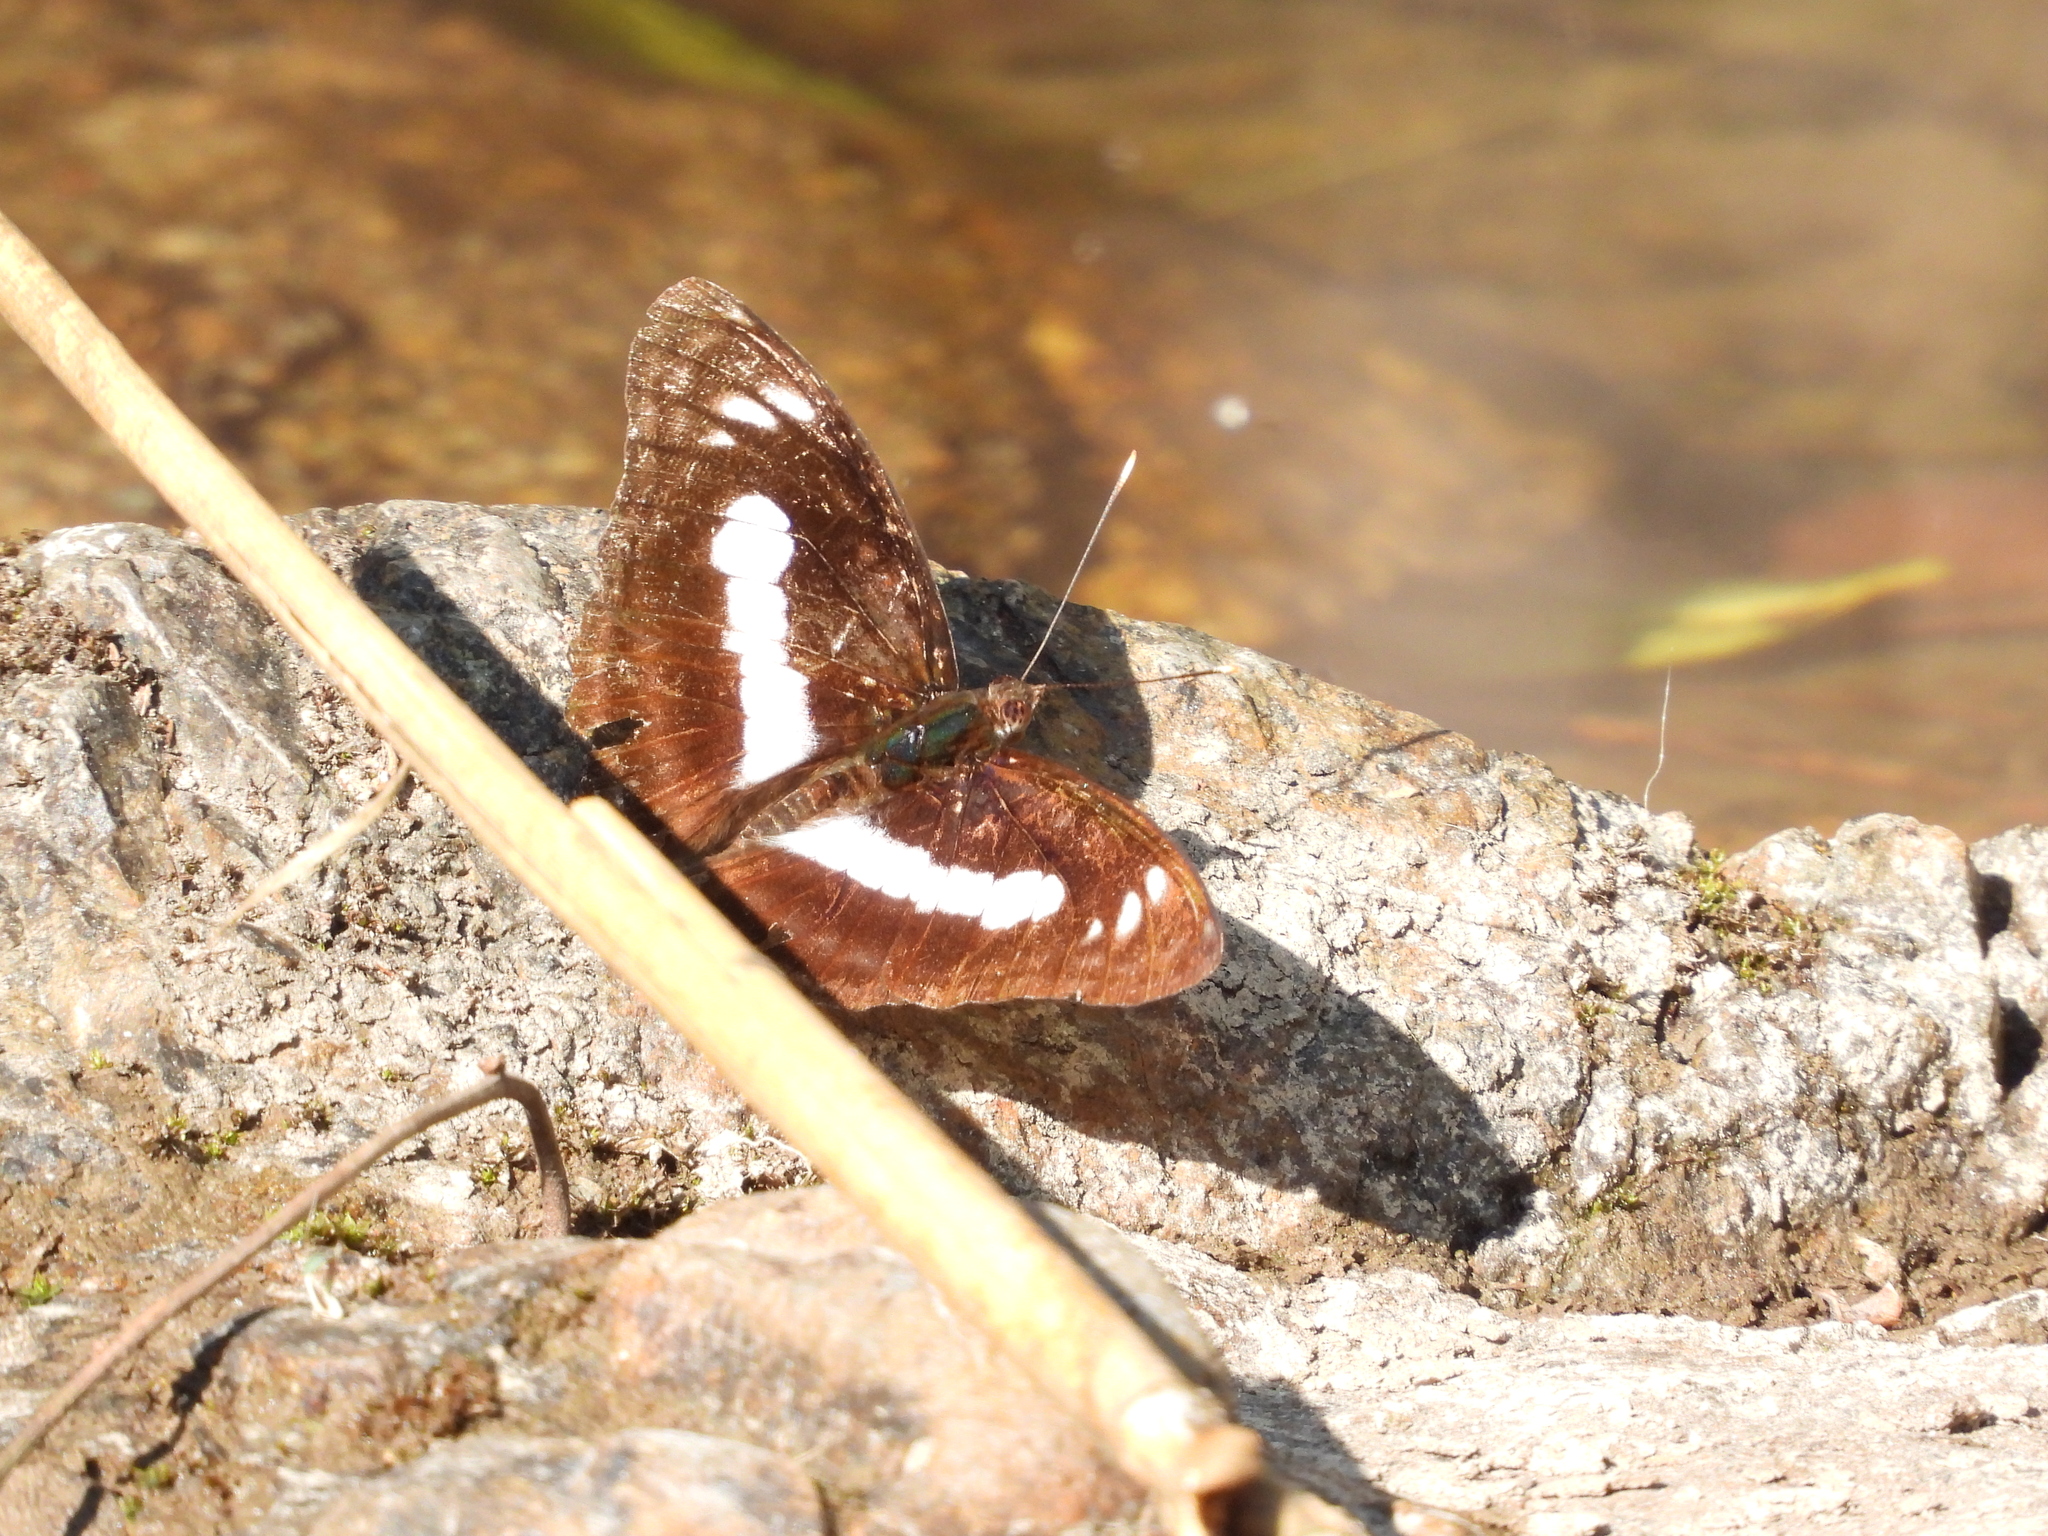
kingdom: Animalia
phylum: Arthropoda
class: Insecta
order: Lepidoptera
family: Nymphalidae
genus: Parathyma
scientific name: Parathyma selenophora
